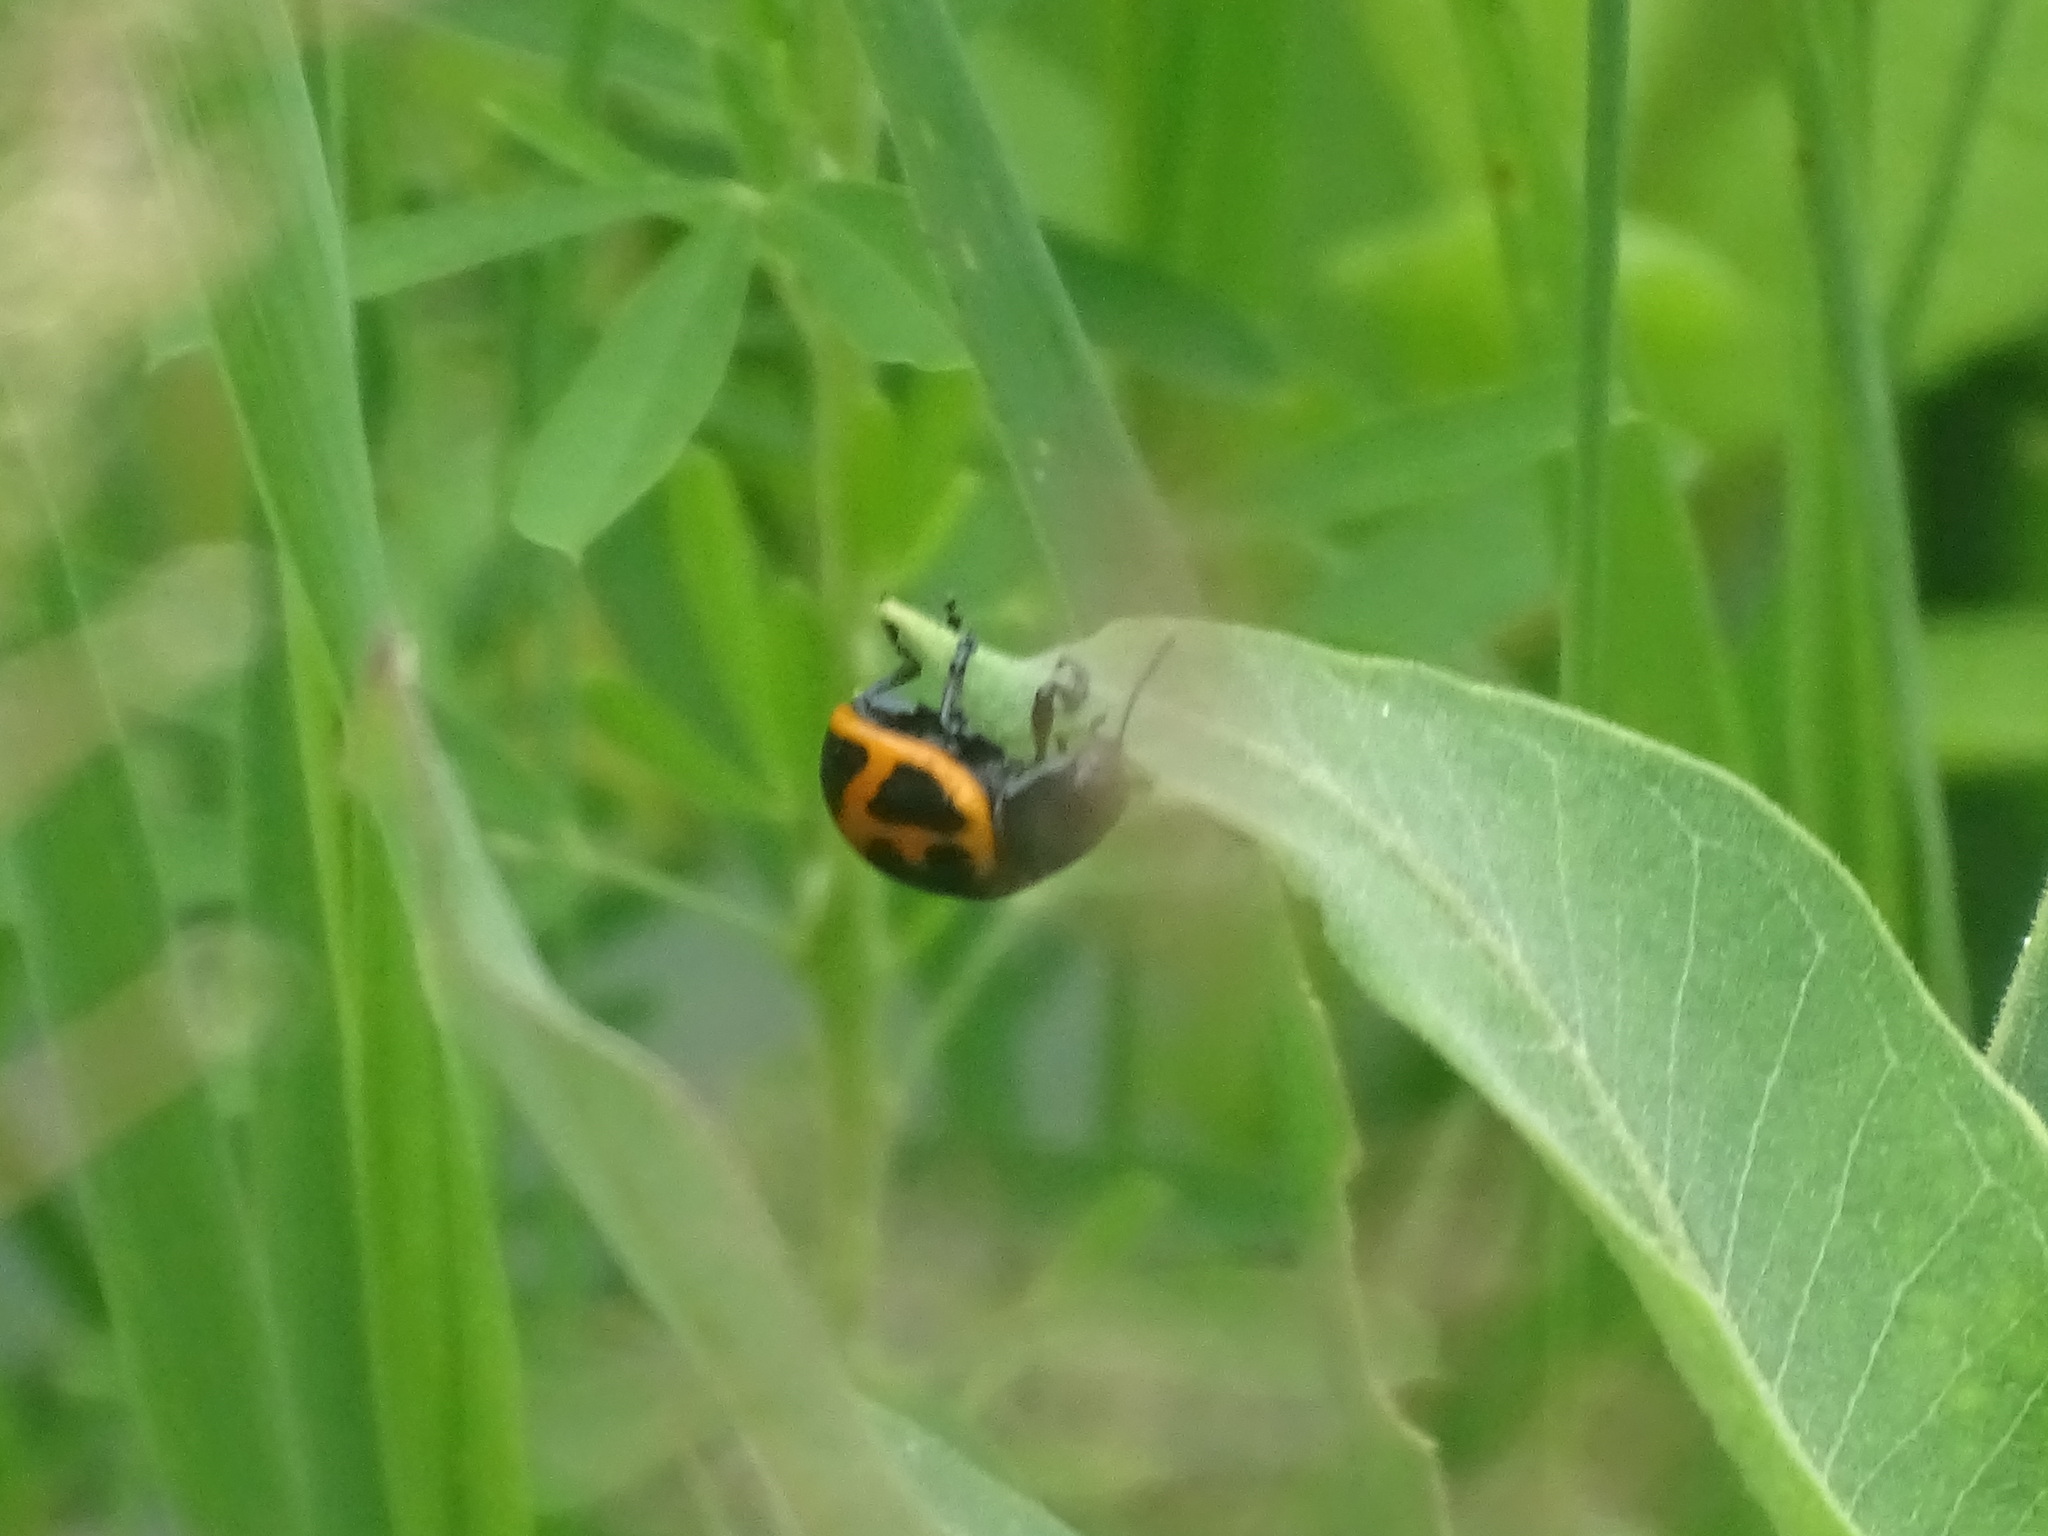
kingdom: Animalia
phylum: Arthropoda
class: Insecta
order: Coleoptera
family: Chrysomelidae
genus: Labidomera
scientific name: Labidomera clivicollis
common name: Swamp milkweed leaf beetle
